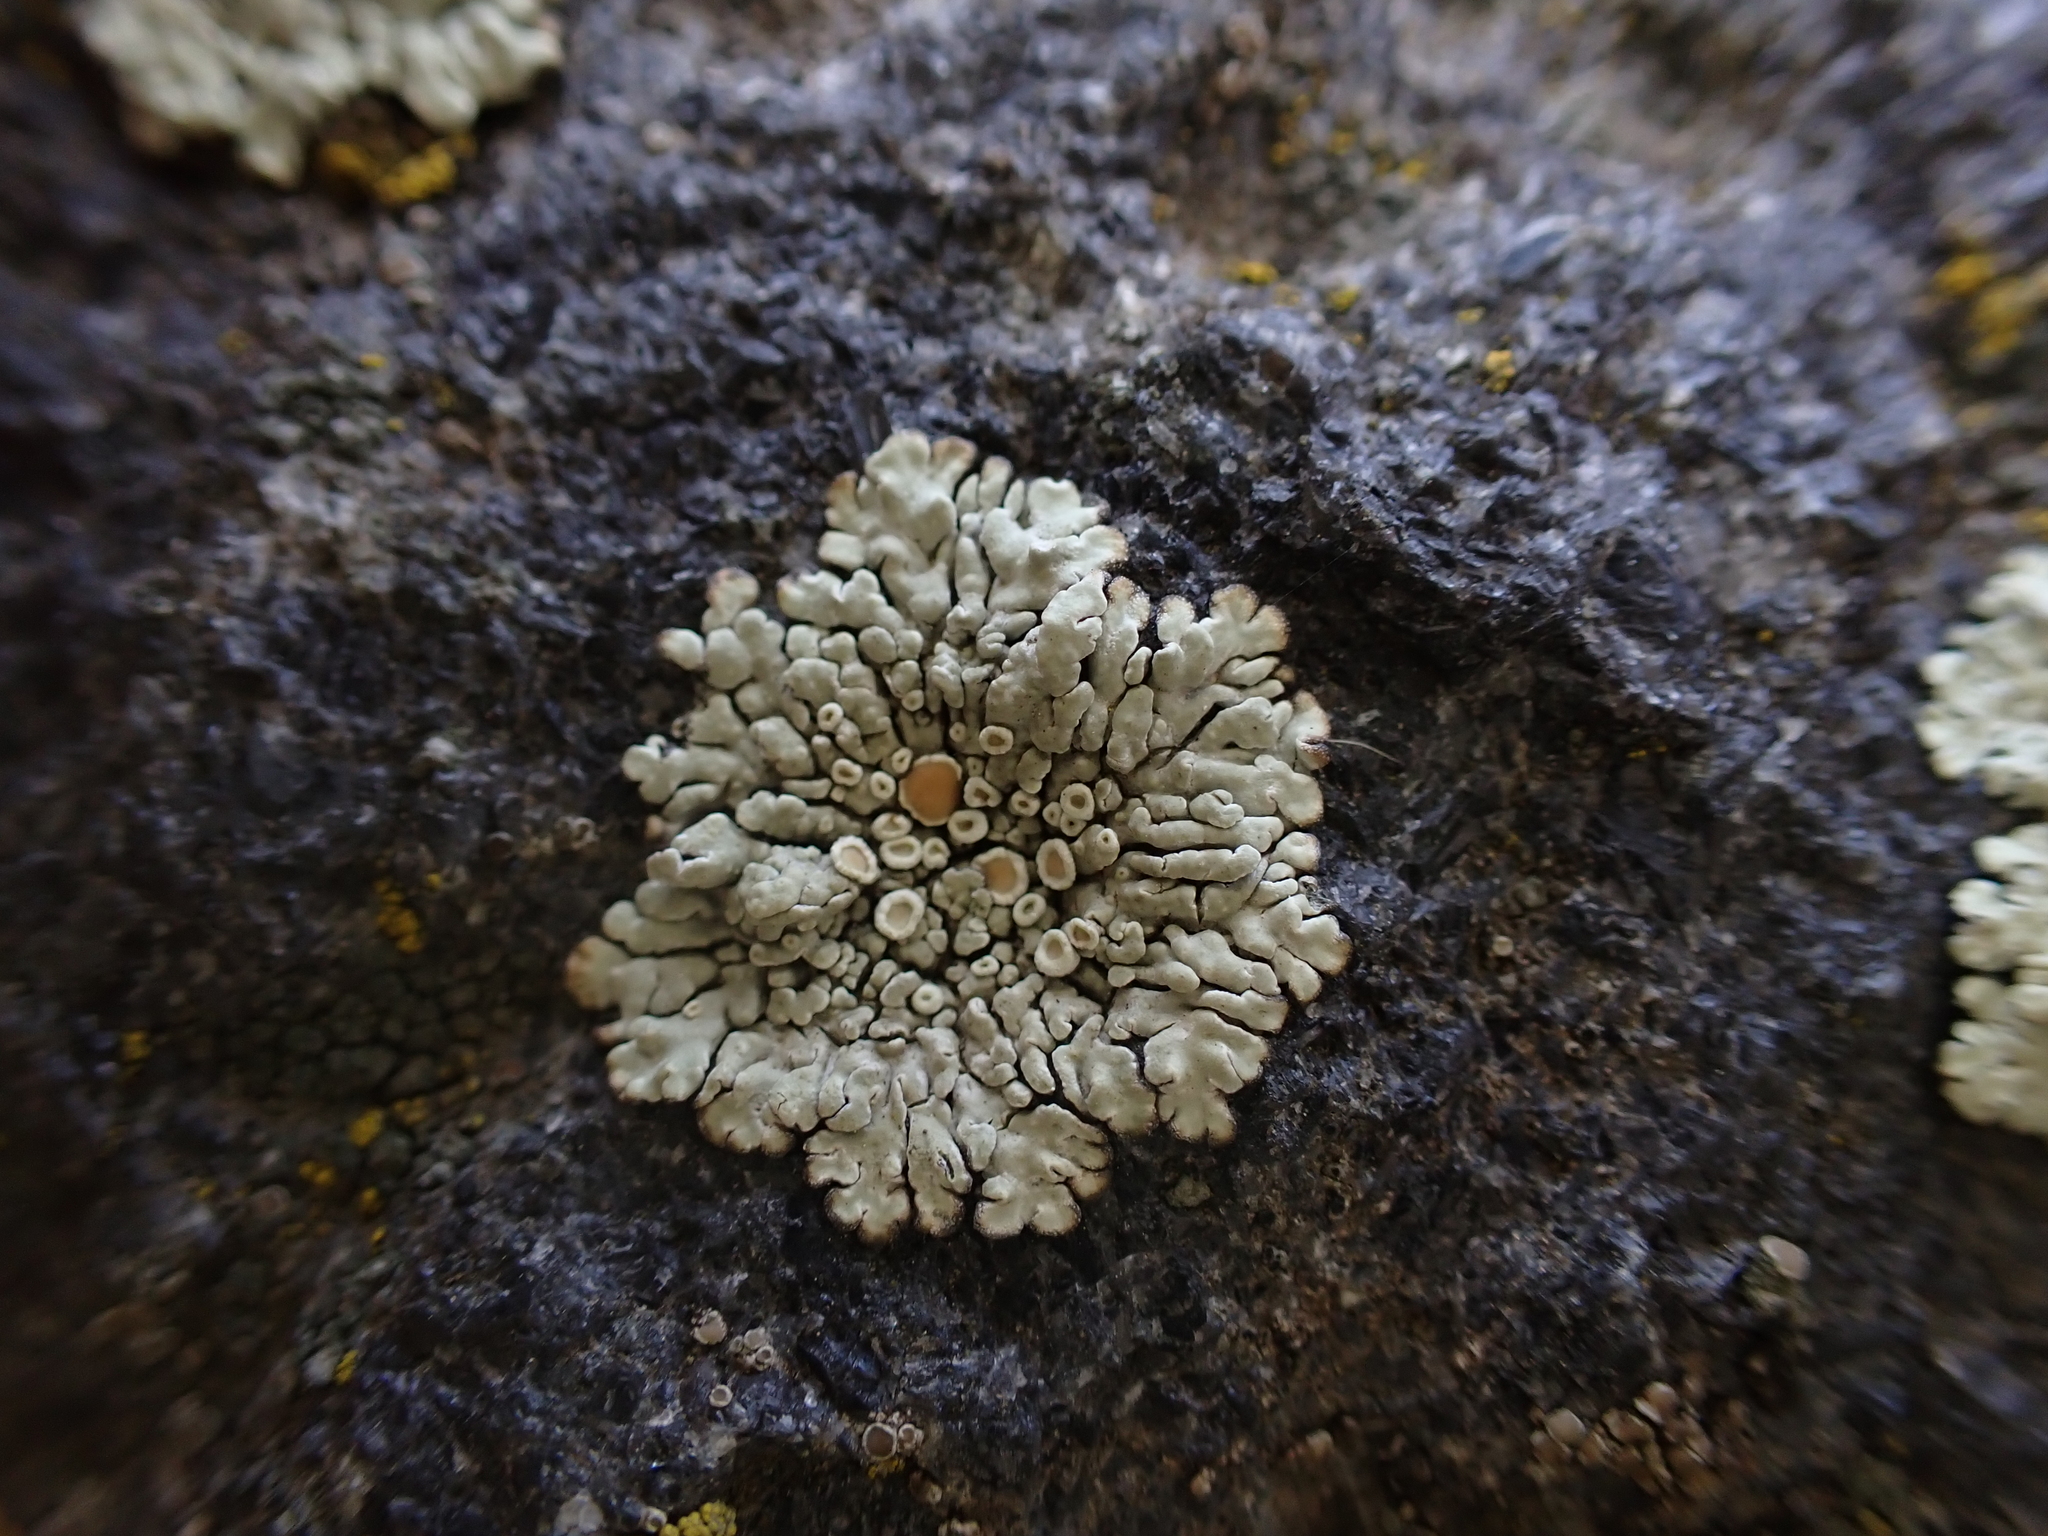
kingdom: Fungi
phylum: Ascomycota
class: Lecanoromycetes
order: Lecanorales
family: Lecanoraceae
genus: Protoparmeliopsis
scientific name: Protoparmeliopsis muralis
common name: Stonewall rim lichen
